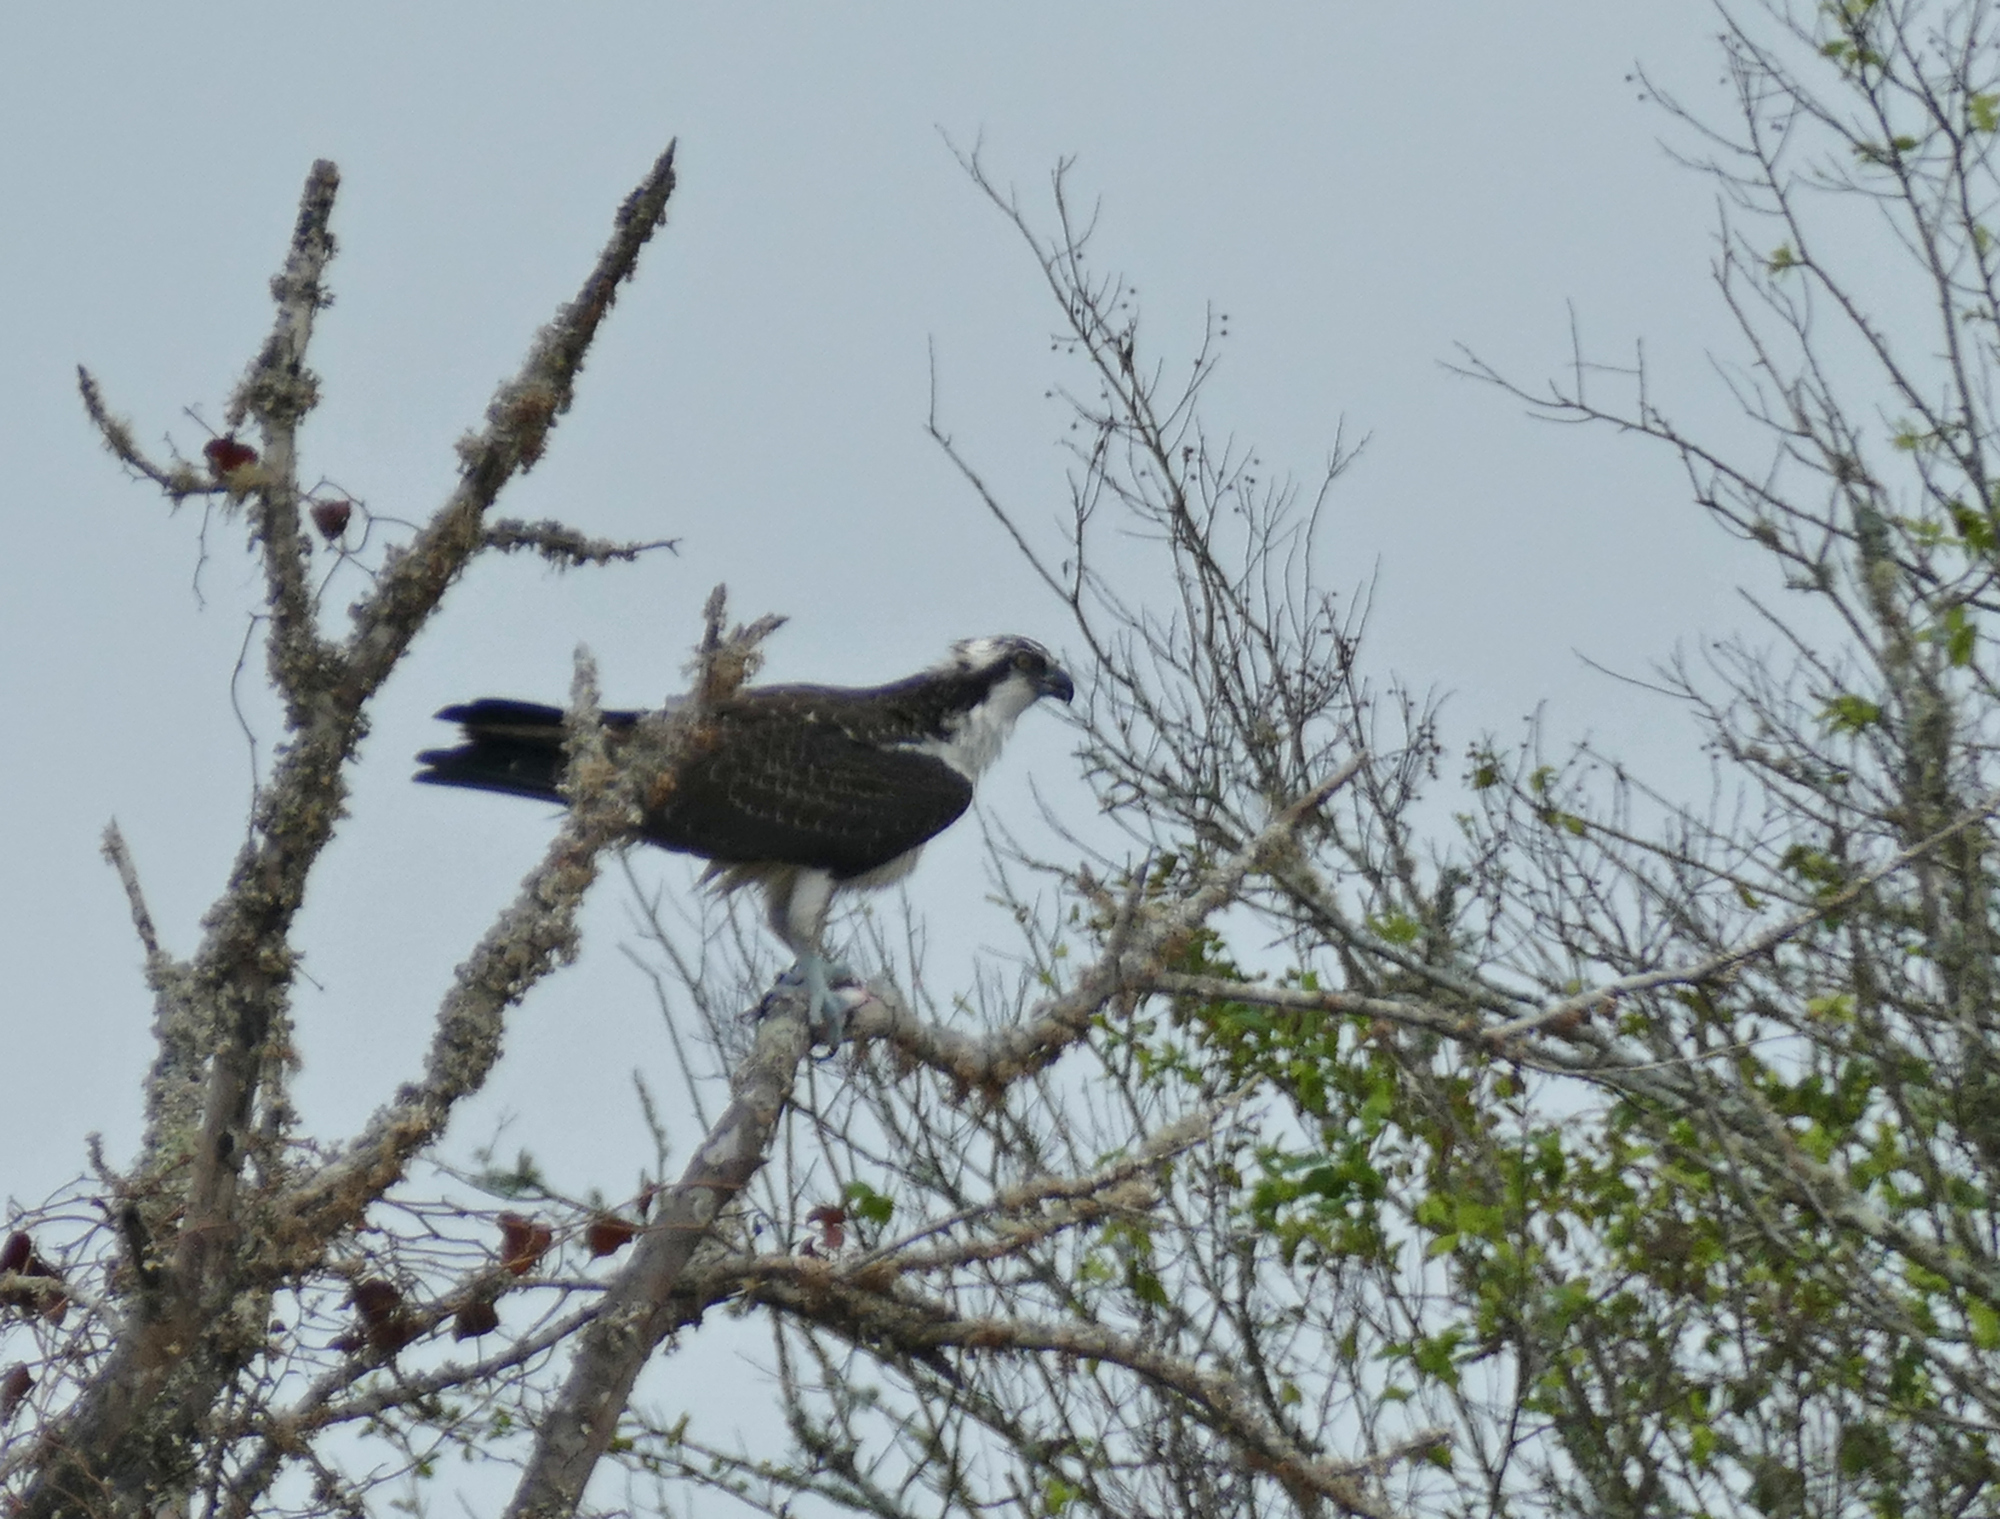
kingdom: Animalia
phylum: Chordata
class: Aves
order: Accipitriformes
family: Pandionidae
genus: Pandion
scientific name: Pandion haliaetus
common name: Osprey
